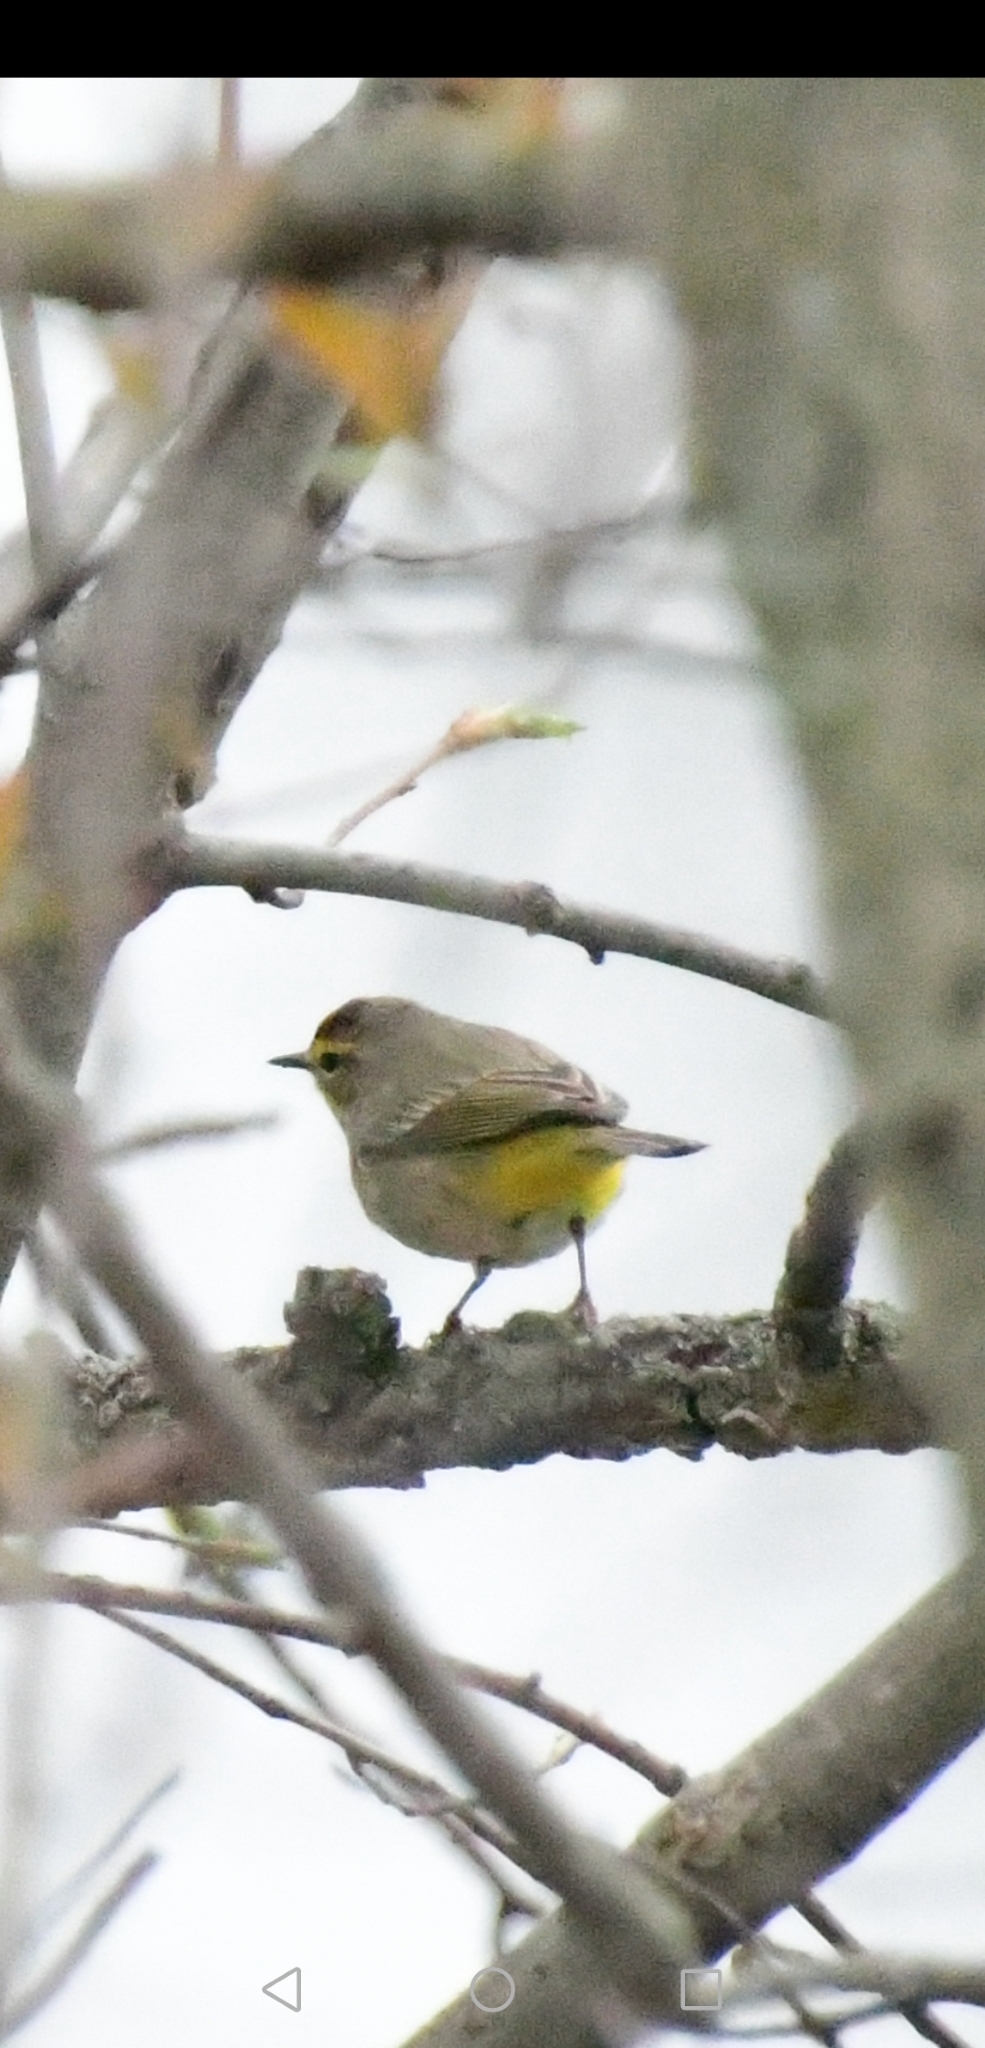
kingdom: Animalia
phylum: Chordata
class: Aves
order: Passeriformes
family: Parulidae
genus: Setophaga
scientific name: Setophaga palmarum
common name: Palm warbler
